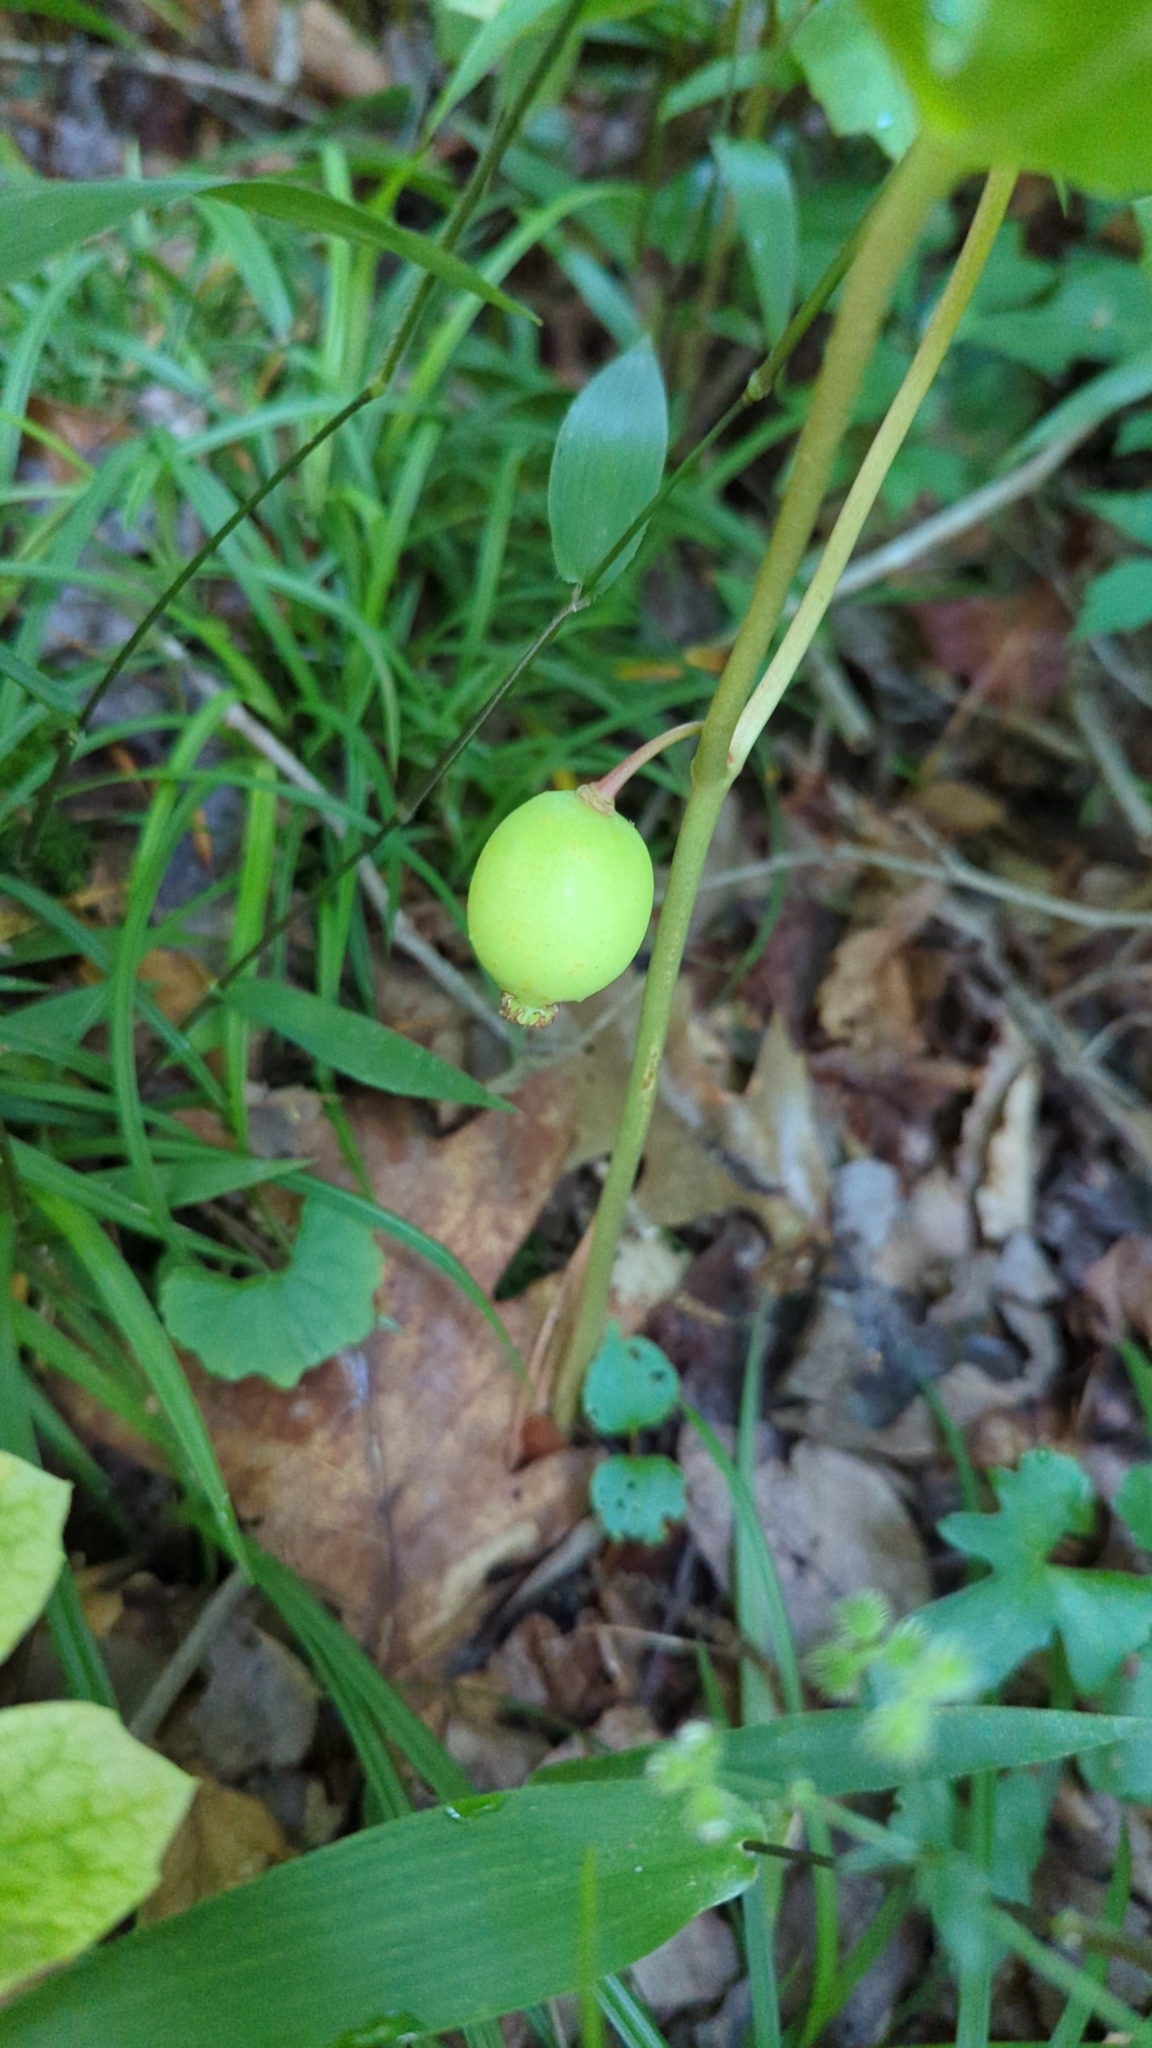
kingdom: Plantae
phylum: Tracheophyta
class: Magnoliopsida
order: Ranunculales
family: Berberidaceae
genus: Podophyllum
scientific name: Podophyllum peltatum
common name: Wild mandrake
